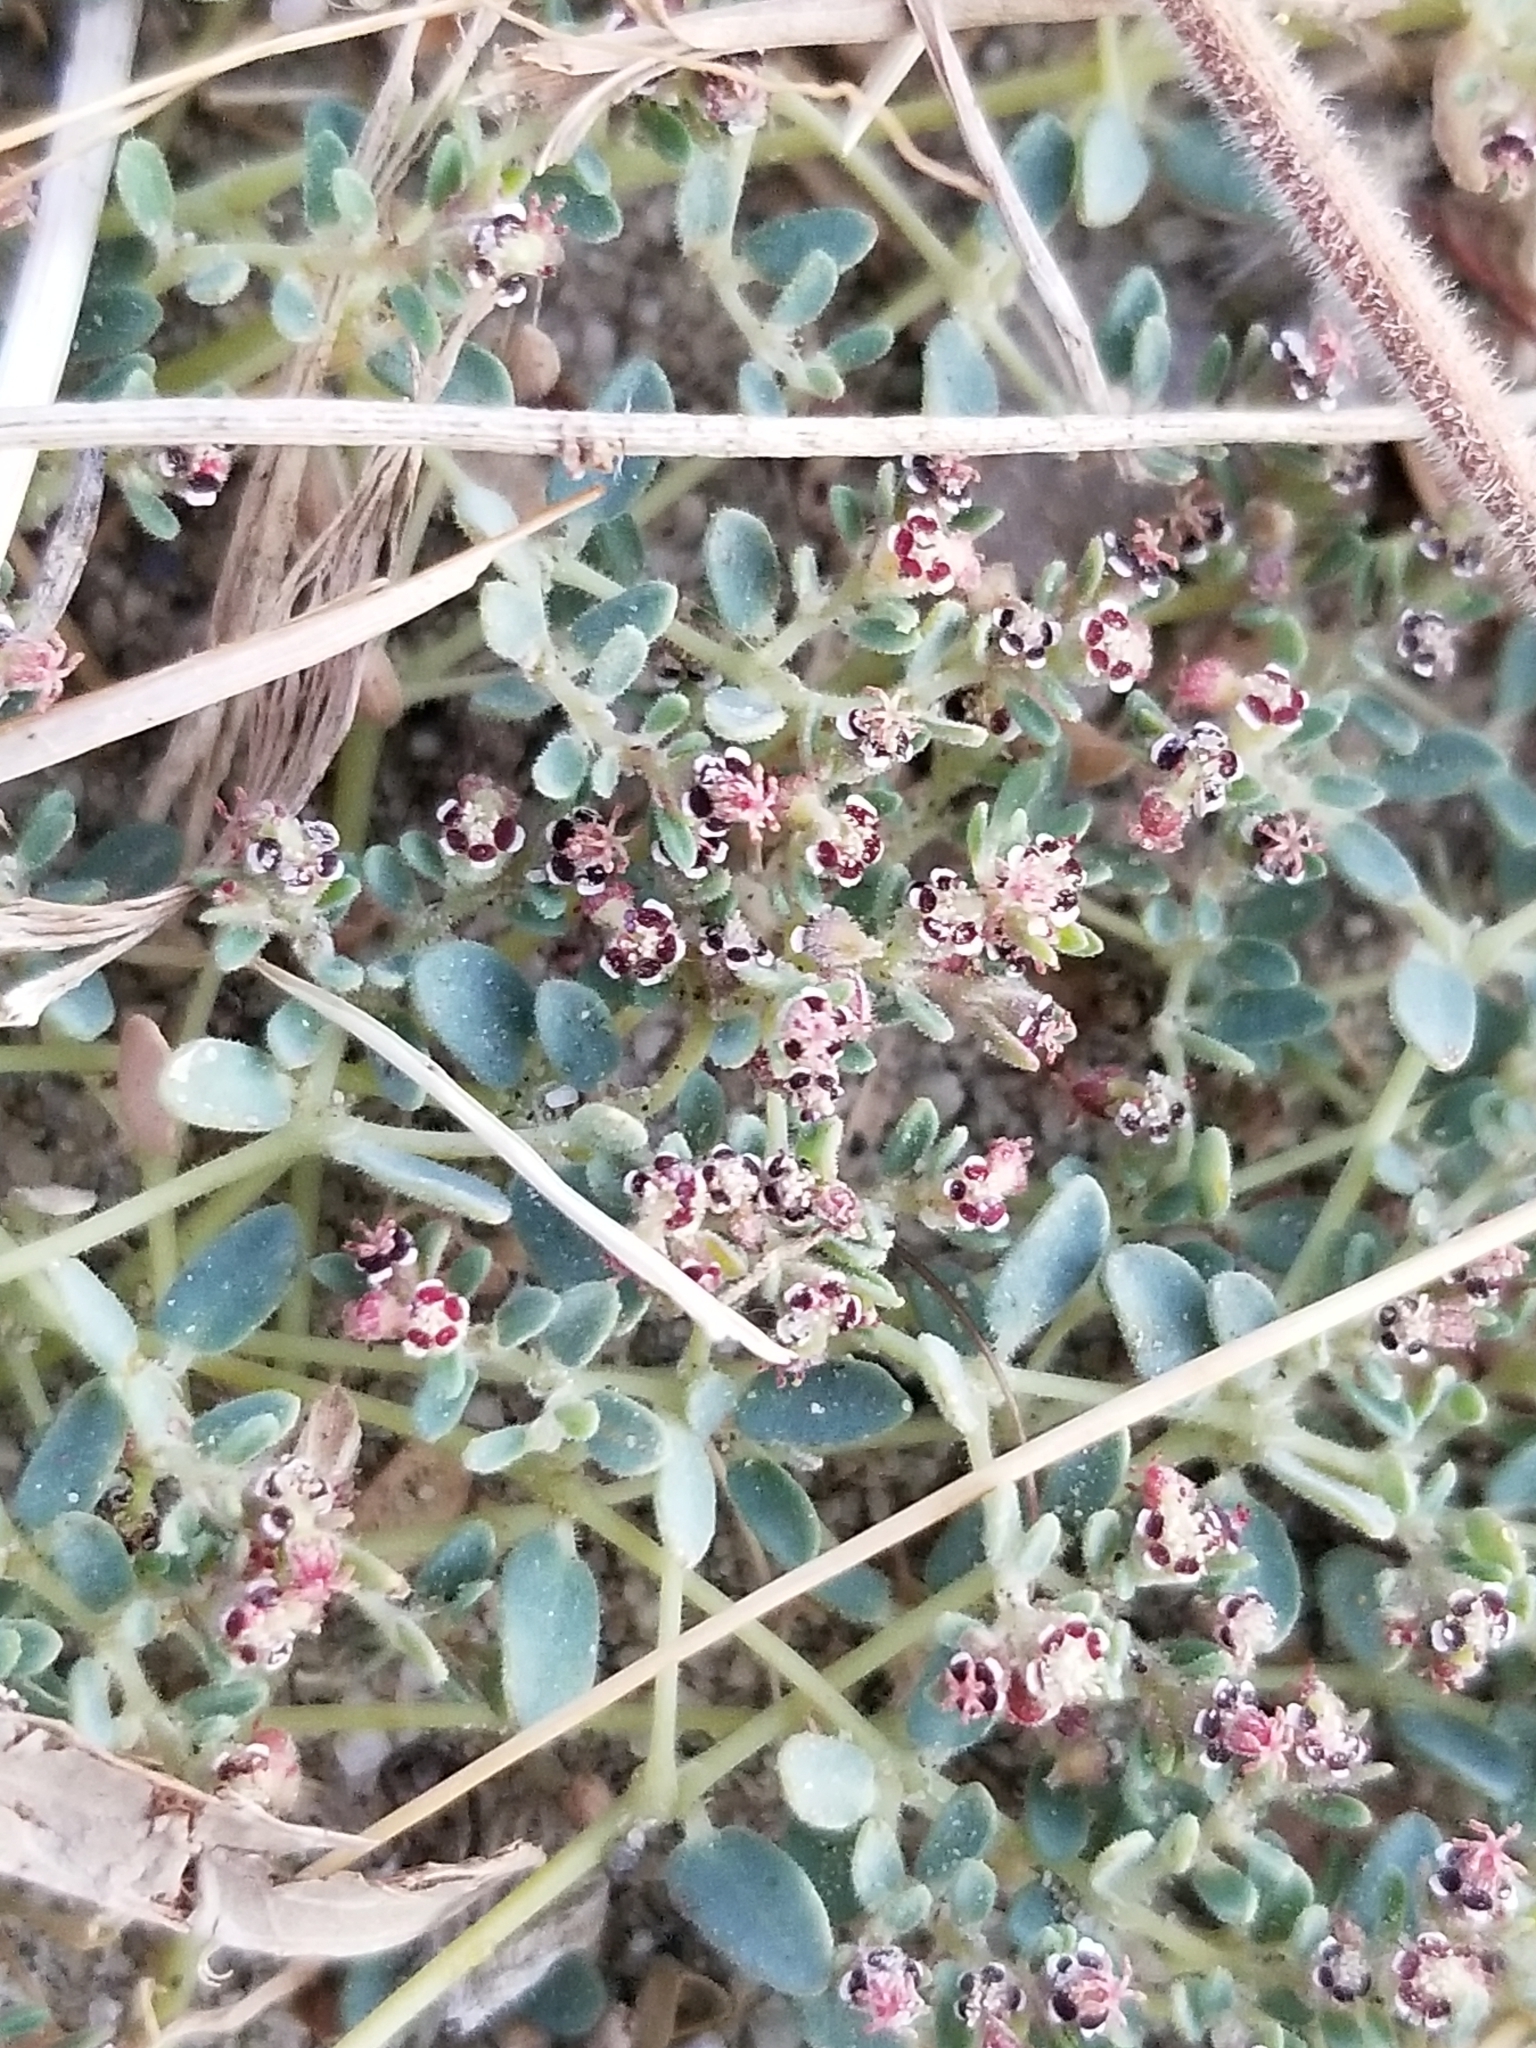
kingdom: Plantae
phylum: Tracheophyta
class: Magnoliopsida
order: Malpighiales
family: Euphorbiaceae
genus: Euphorbia
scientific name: Euphorbia polycarpa
